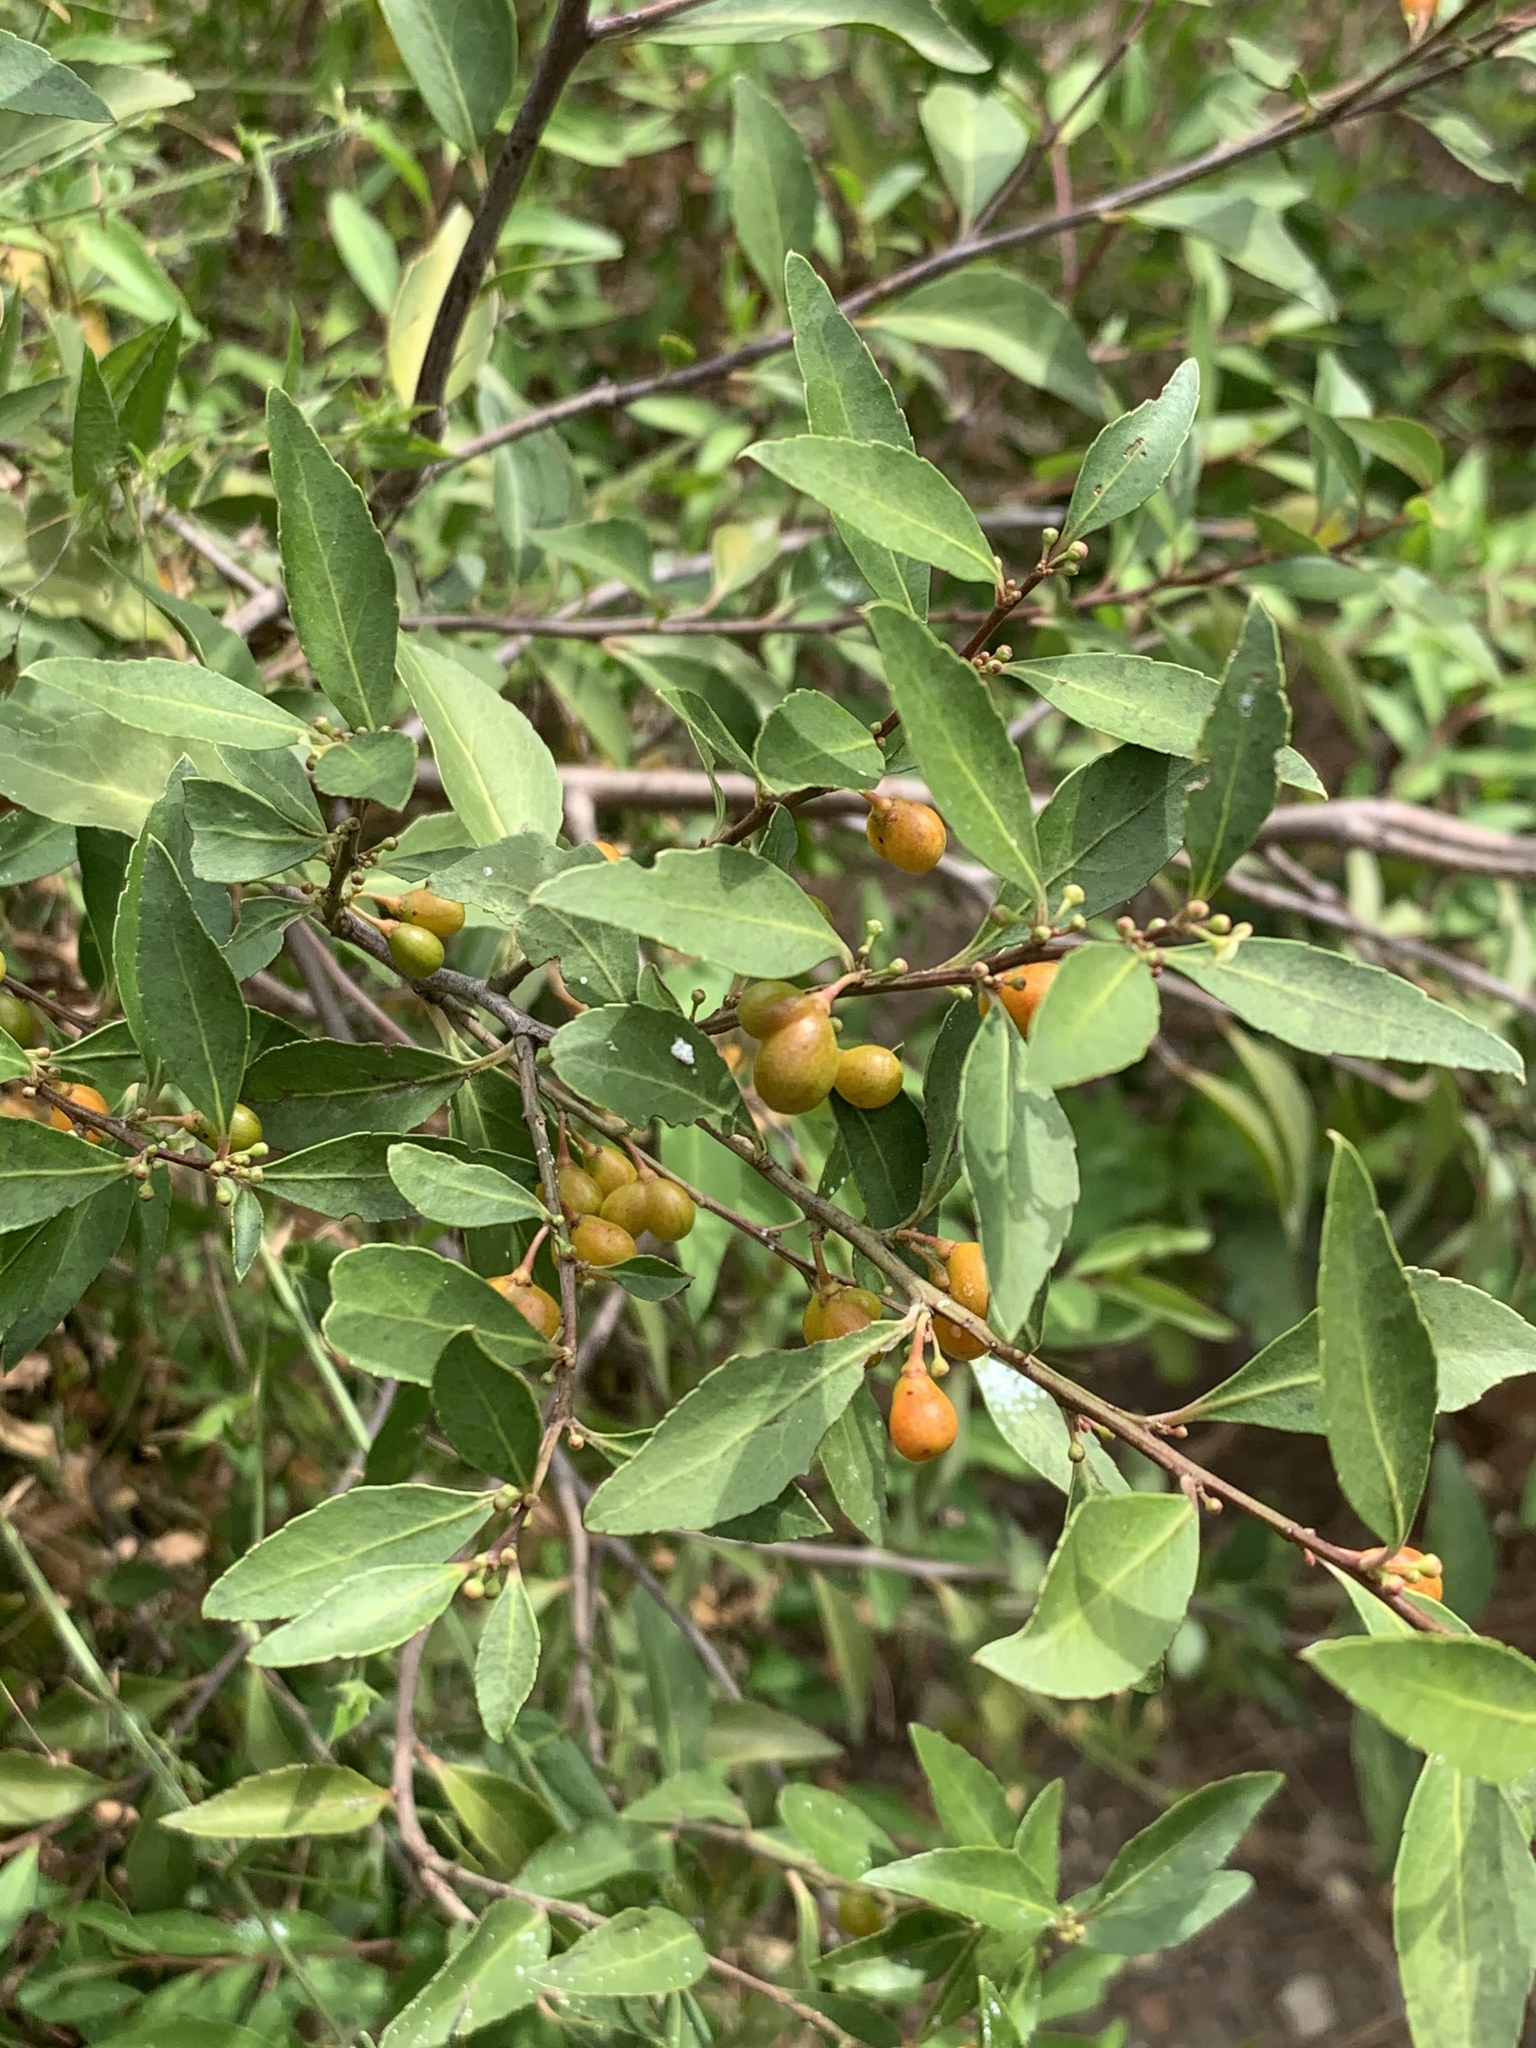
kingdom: Plantae
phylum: Tracheophyta
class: Magnoliopsida
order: Celastrales
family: Celastraceae
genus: Gymnosporia
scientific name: Gymnosporia acuminata
